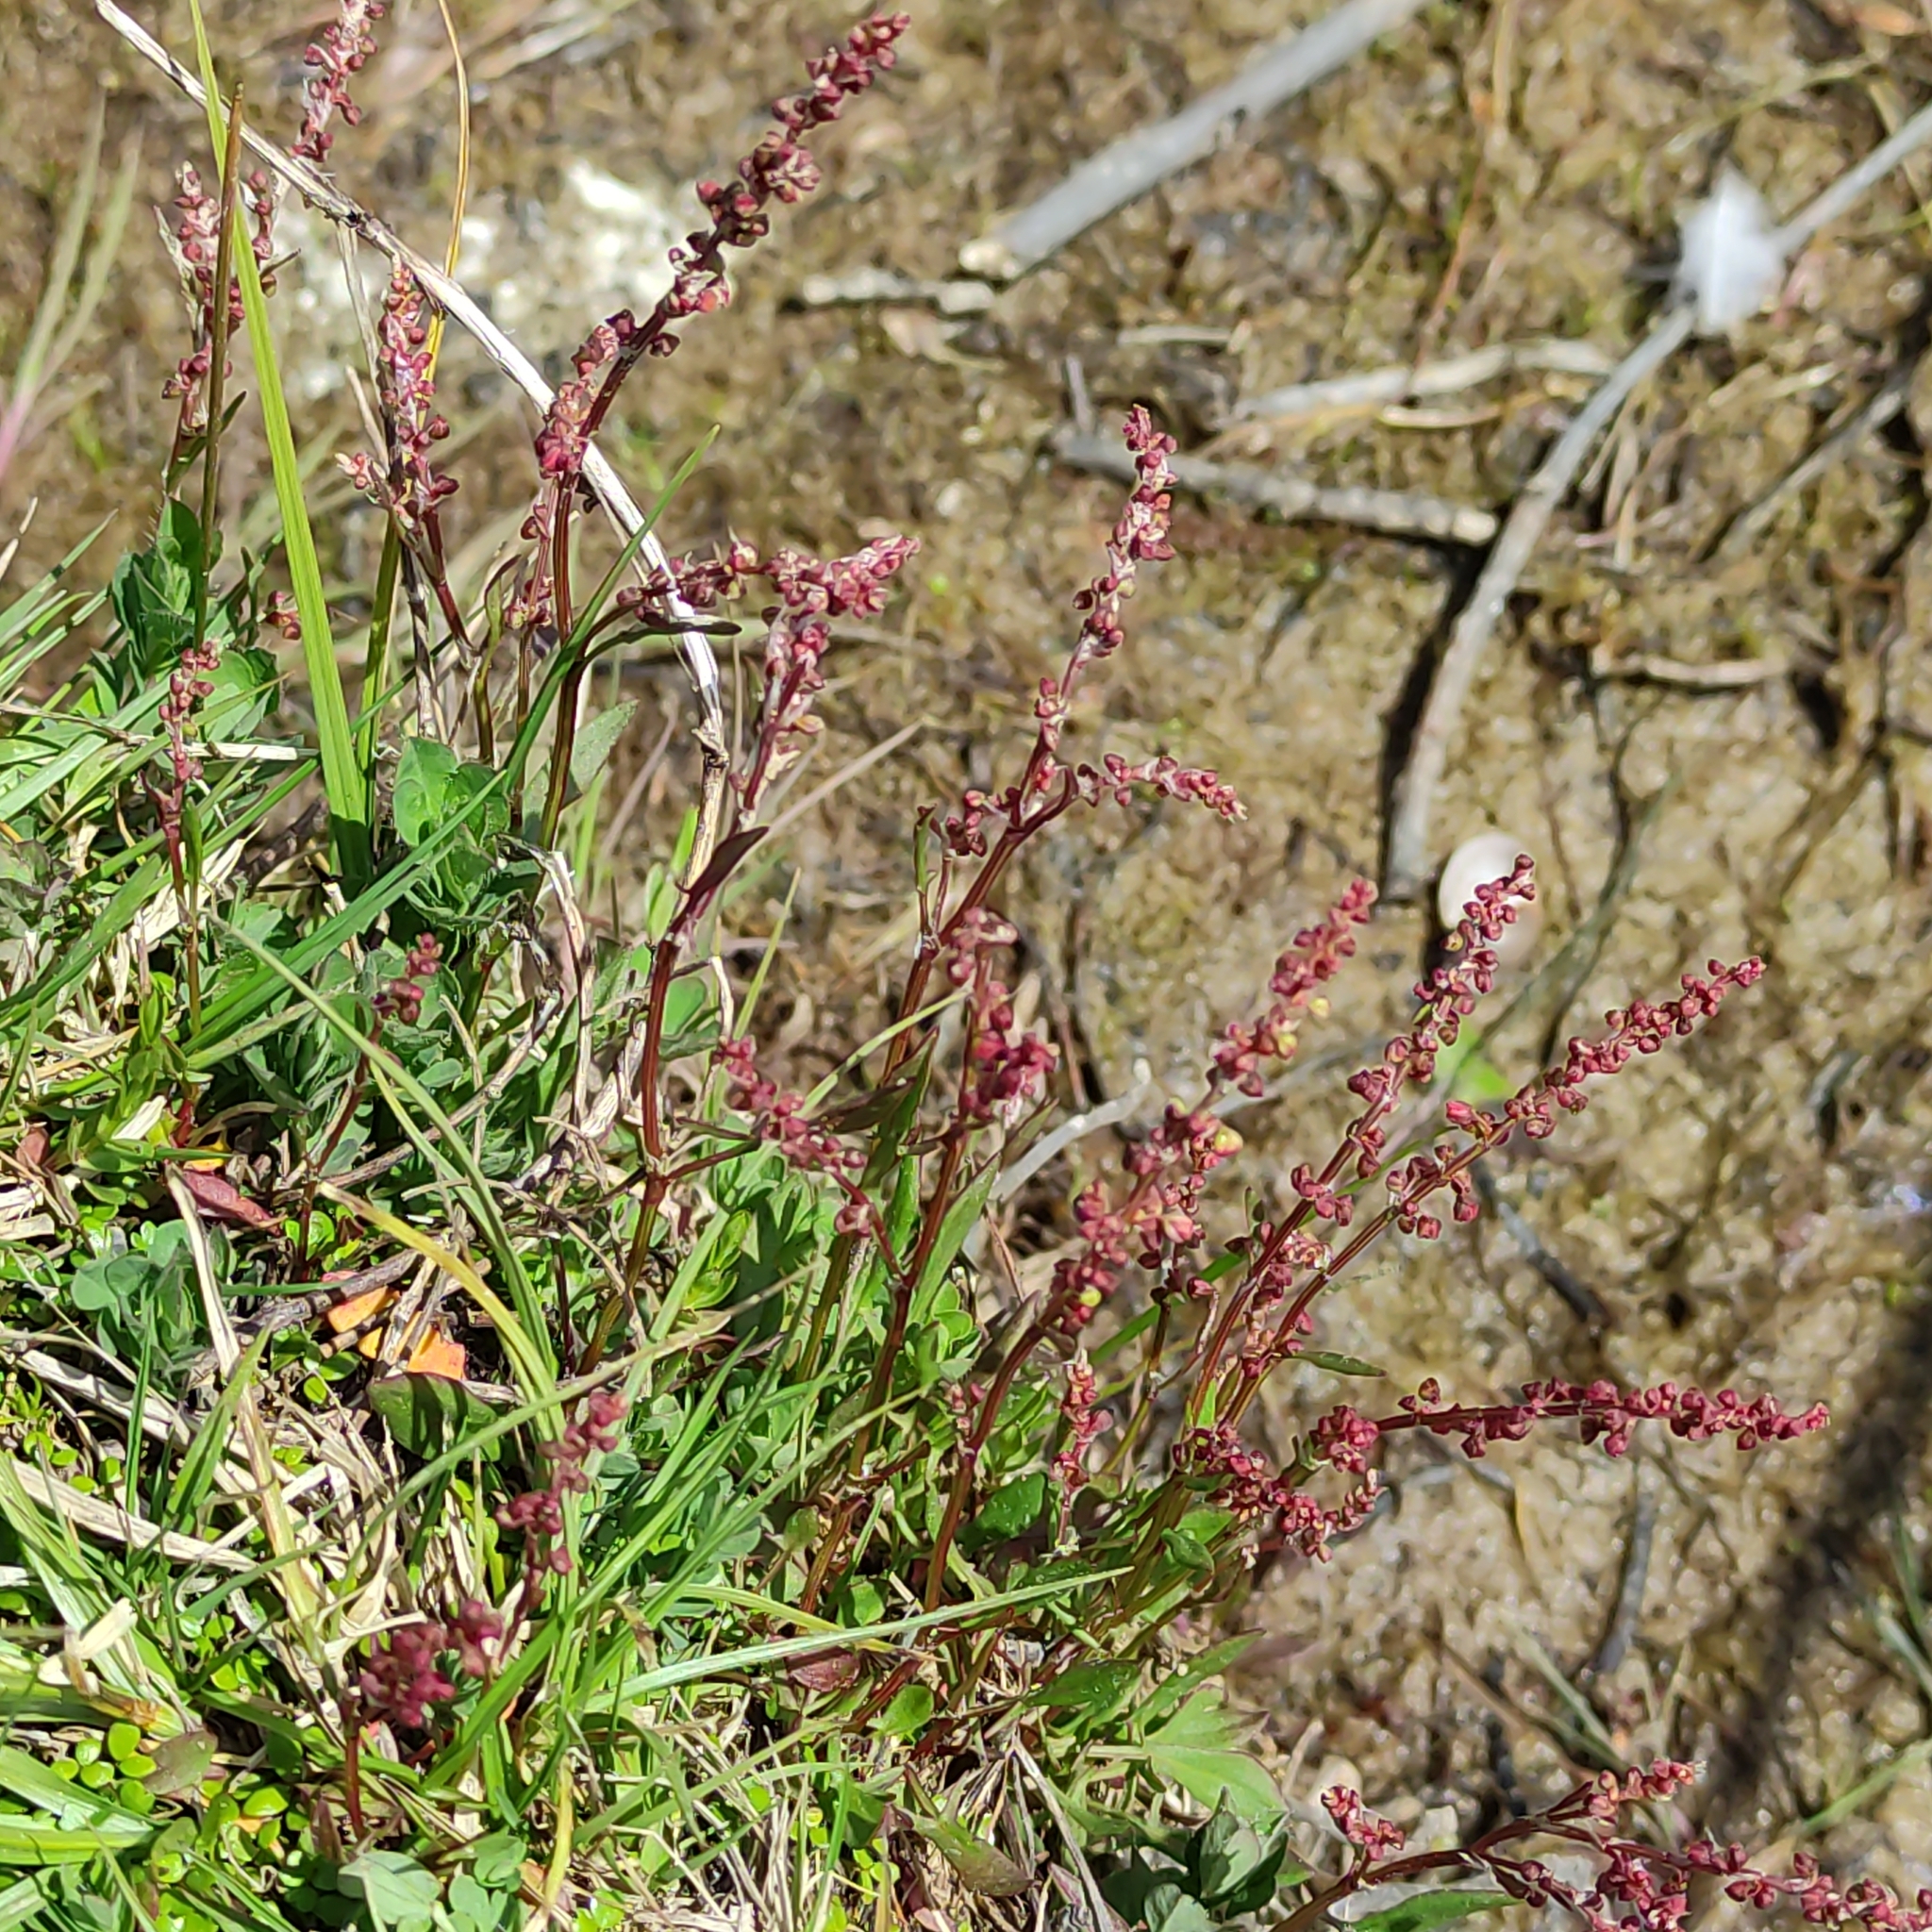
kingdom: Plantae
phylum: Tracheophyta
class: Magnoliopsida
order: Caryophyllales
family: Polygonaceae
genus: Rumex
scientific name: Rumex acetosella
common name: Common sheep sorrel
